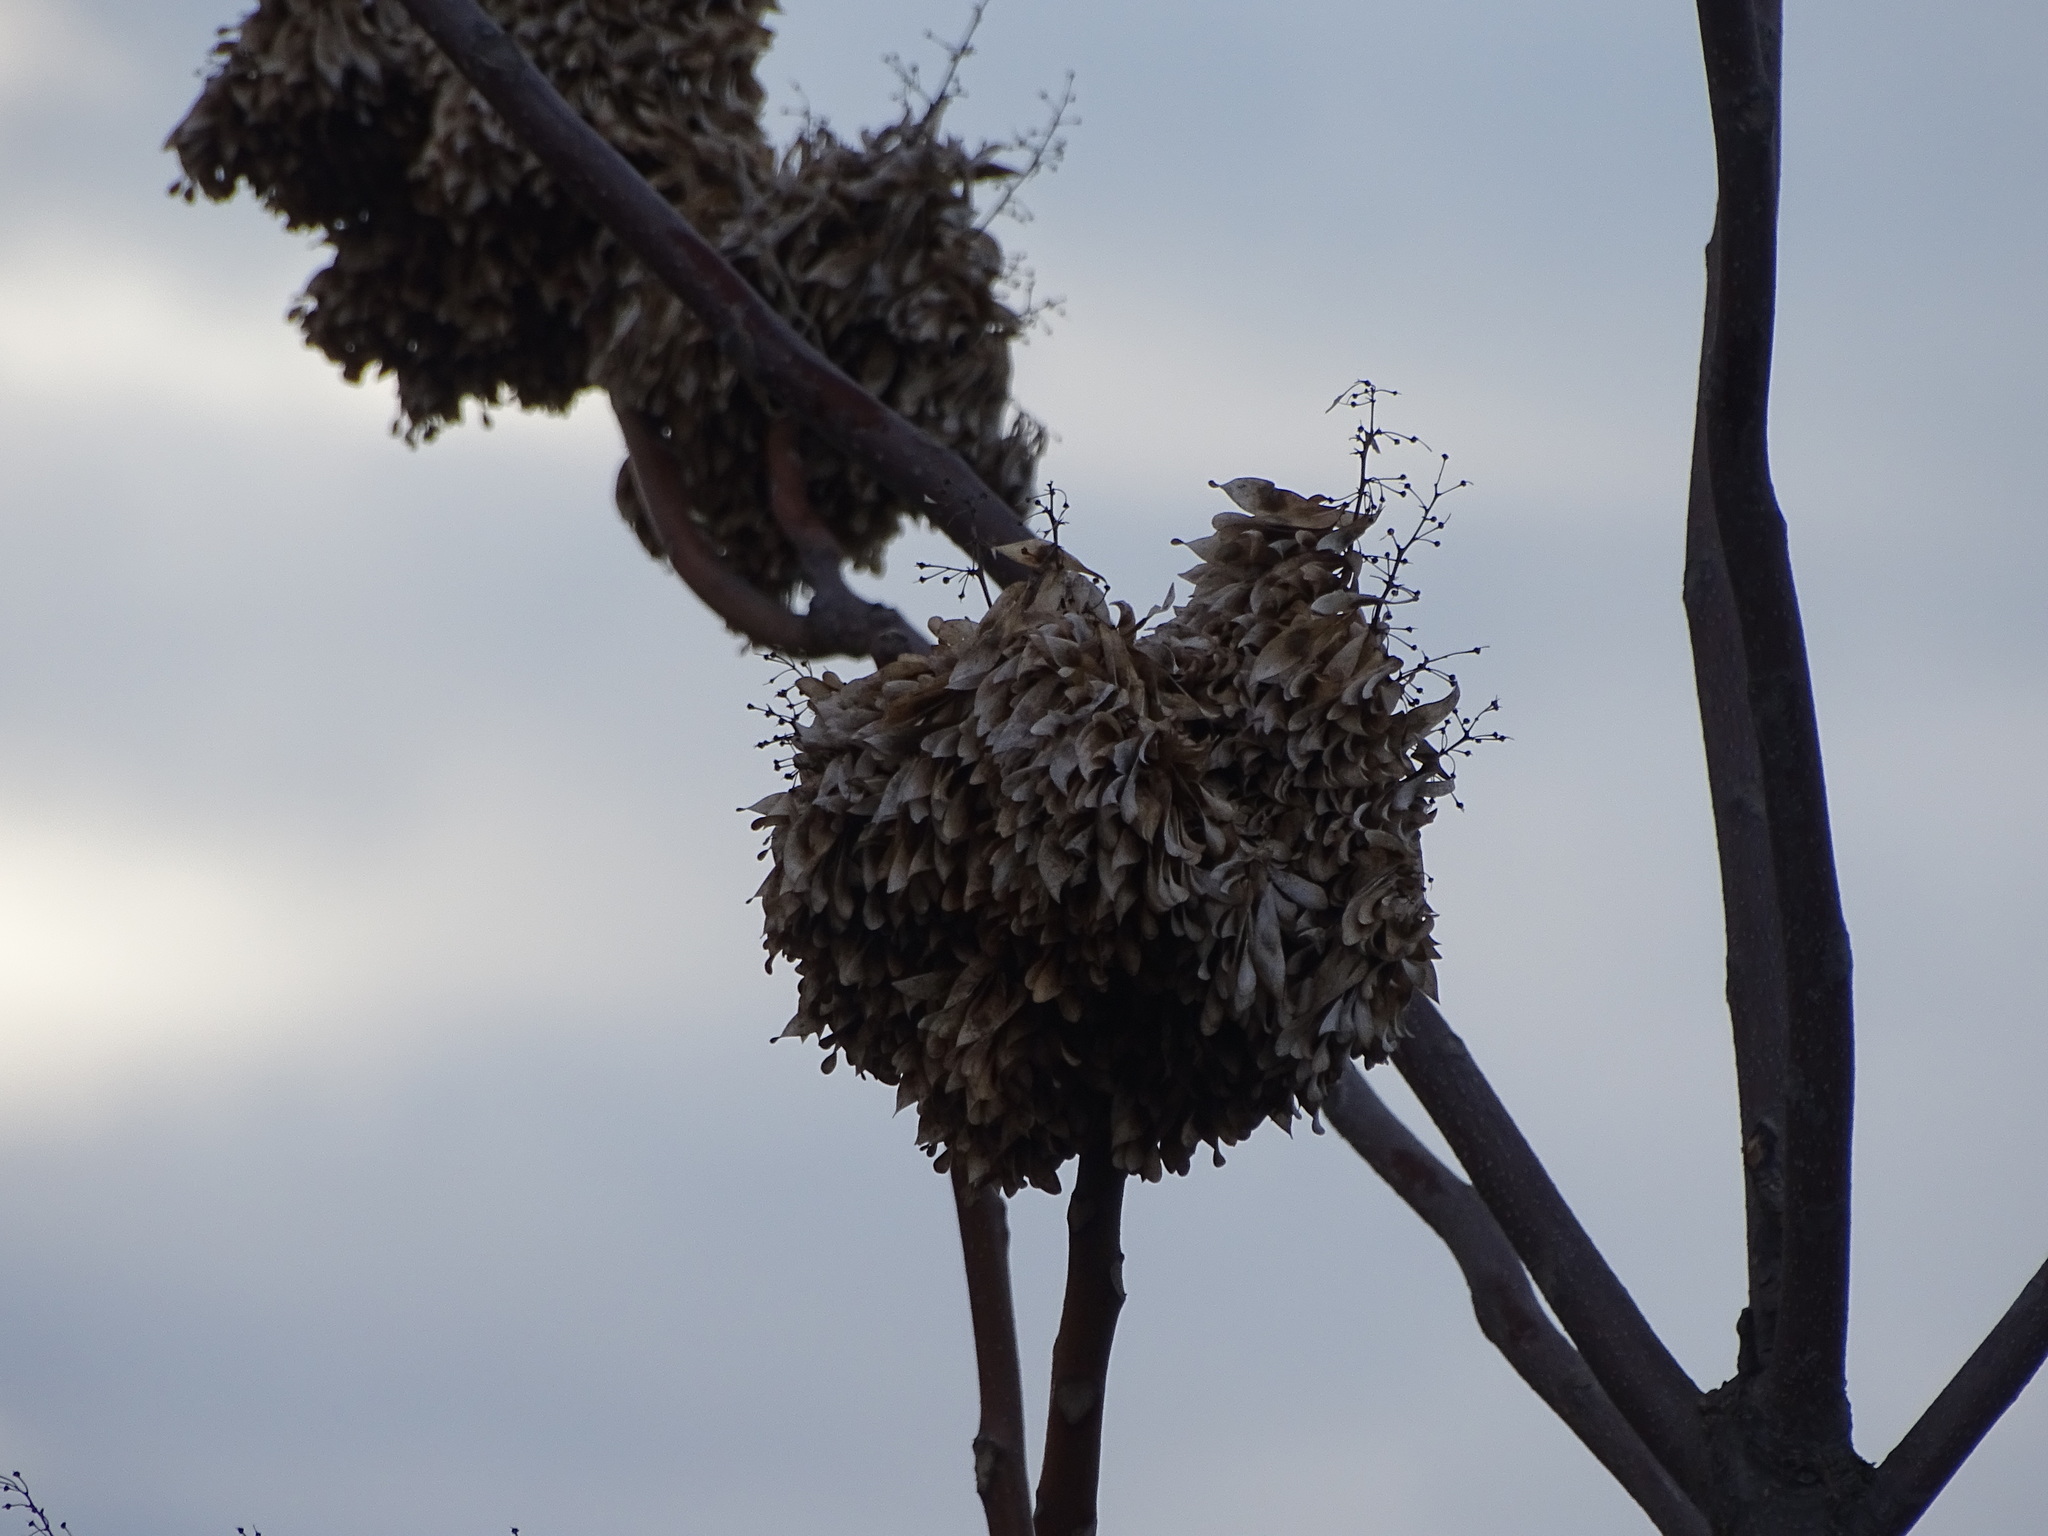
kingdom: Plantae
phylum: Tracheophyta
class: Magnoliopsida
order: Sapindales
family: Simaroubaceae
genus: Ailanthus
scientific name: Ailanthus altissima
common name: Tree-of-heaven
